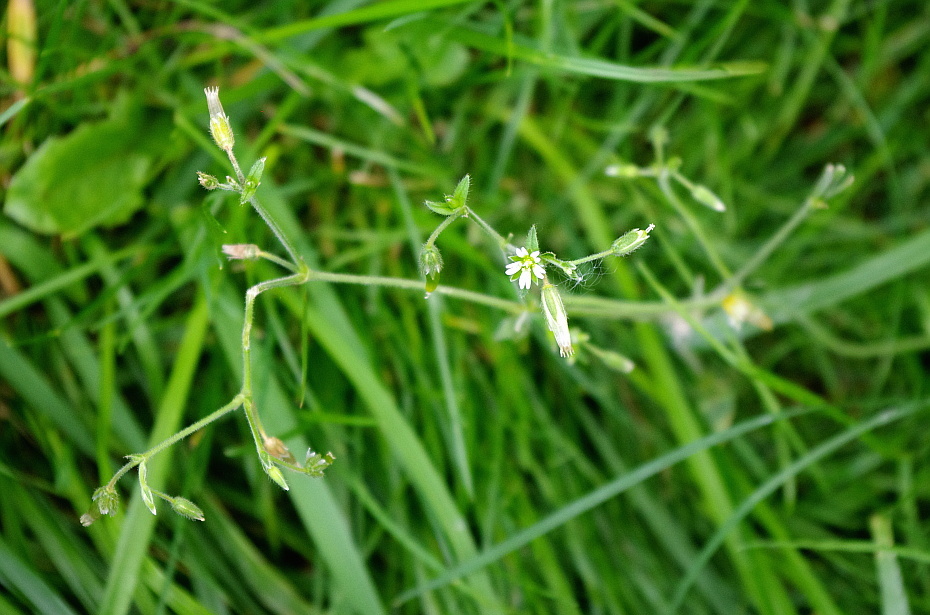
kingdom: Plantae
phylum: Tracheophyta
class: Magnoliopsida
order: Caryophyllales
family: Caryophyllaceae
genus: Cerastium
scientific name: Cerastium holosteoides
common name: Big chickweed
